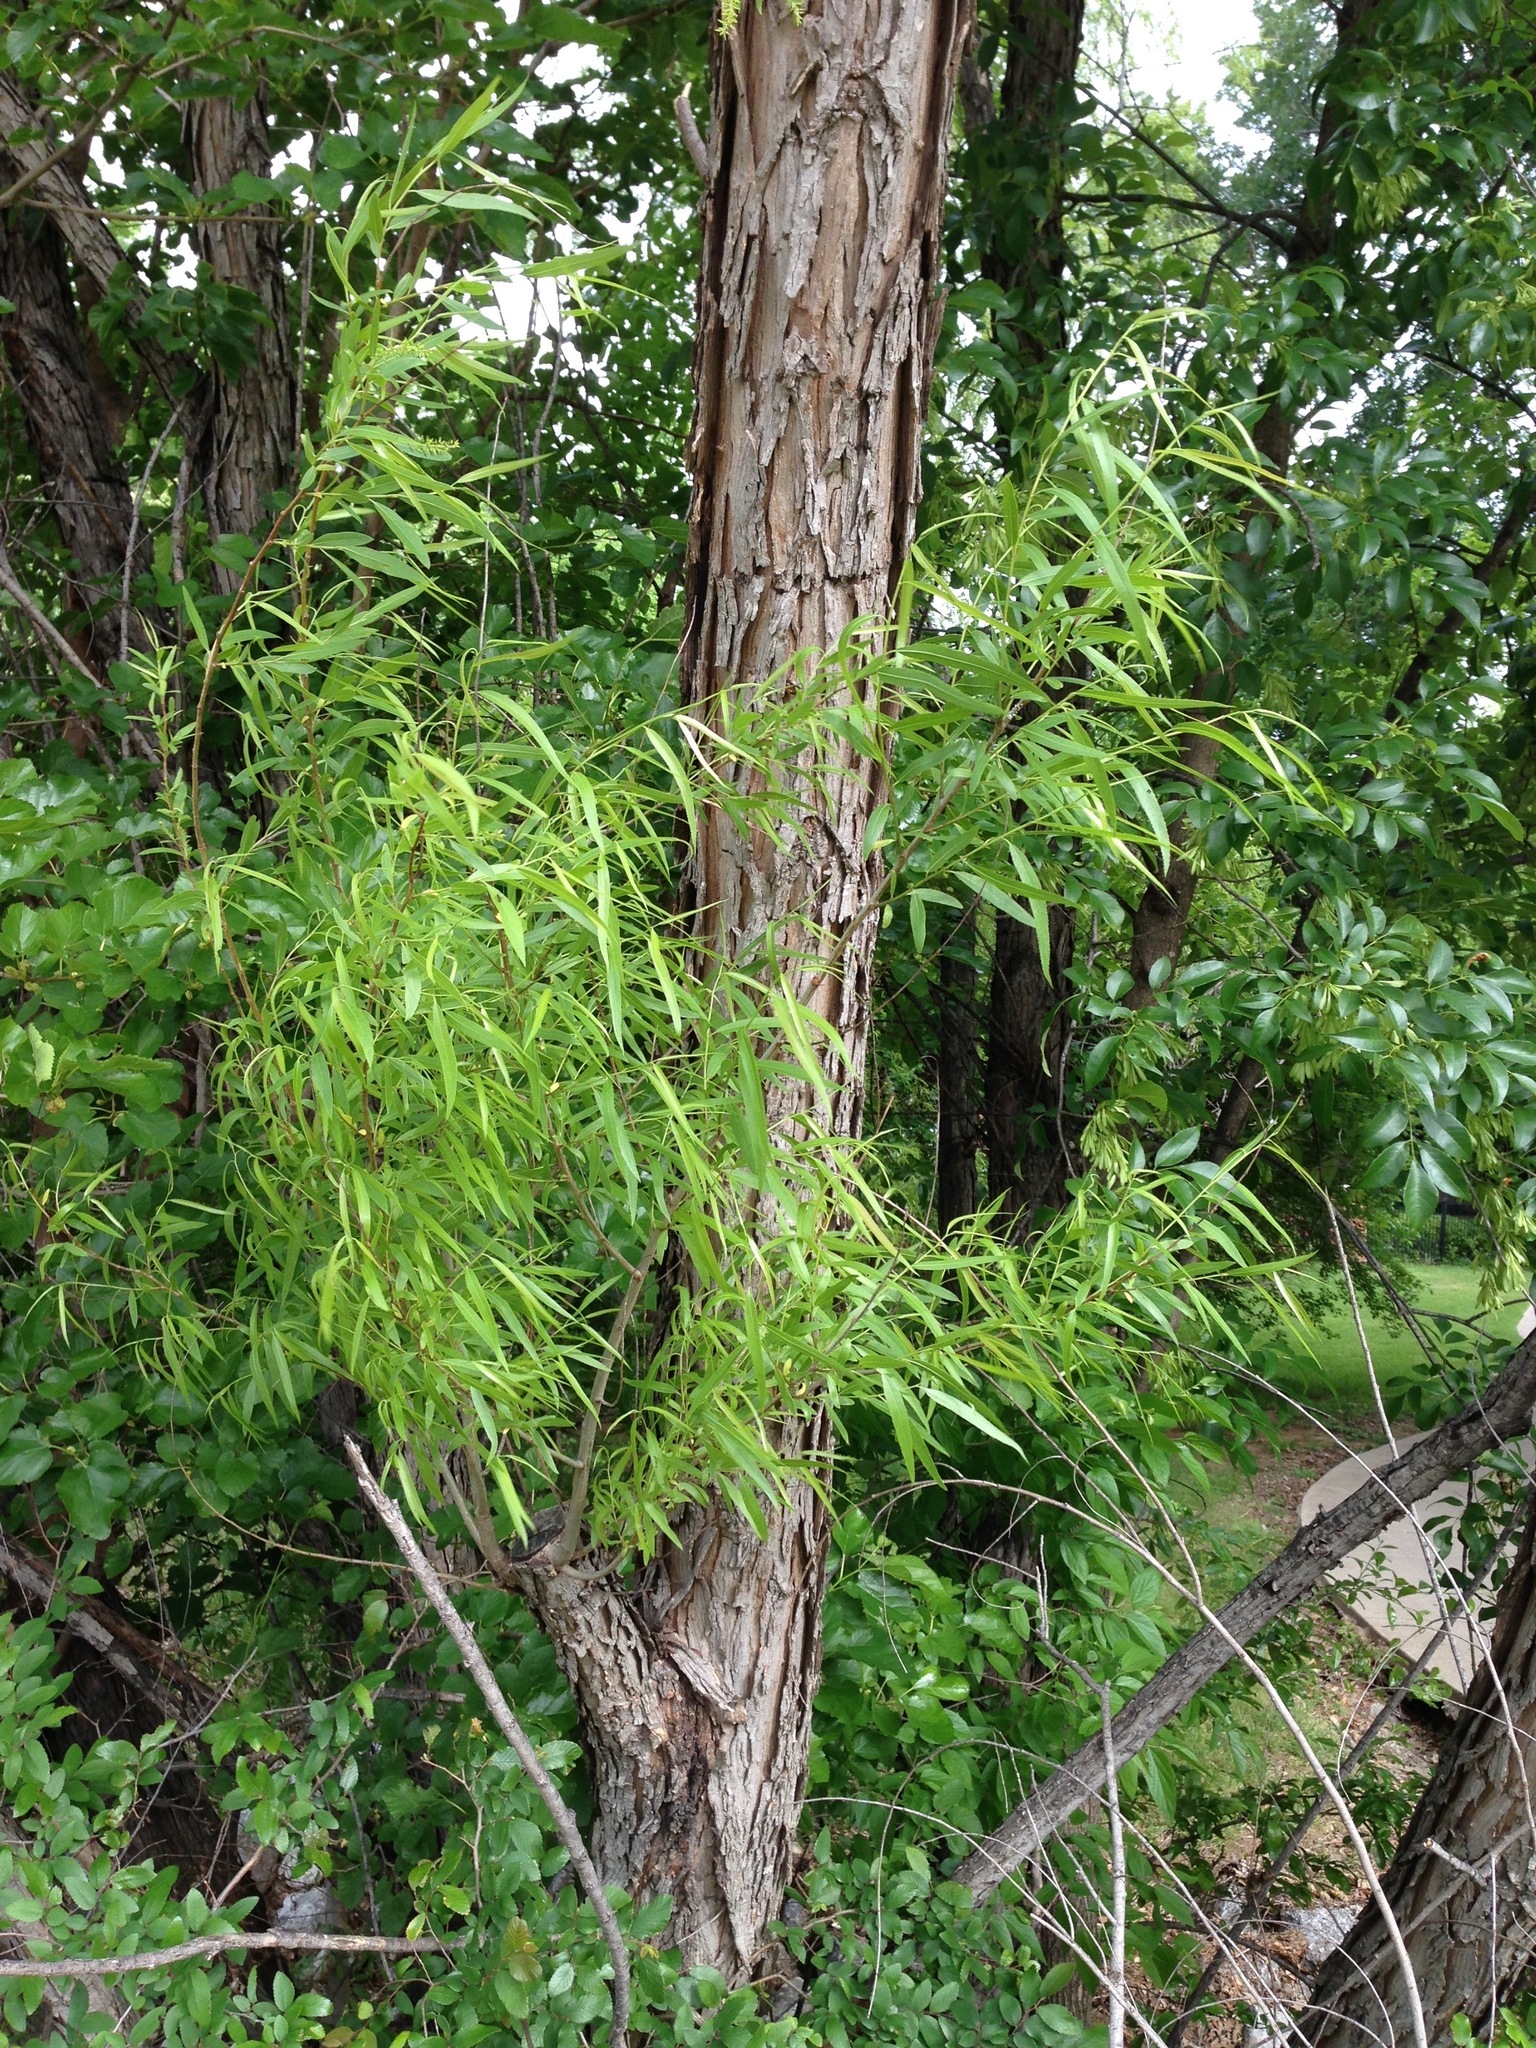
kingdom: Plantae
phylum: Tracheophyta
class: Magnoliopsida
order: Malpighiales
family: Salicaceae
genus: Salix
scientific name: Salix nigra
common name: Black willow
